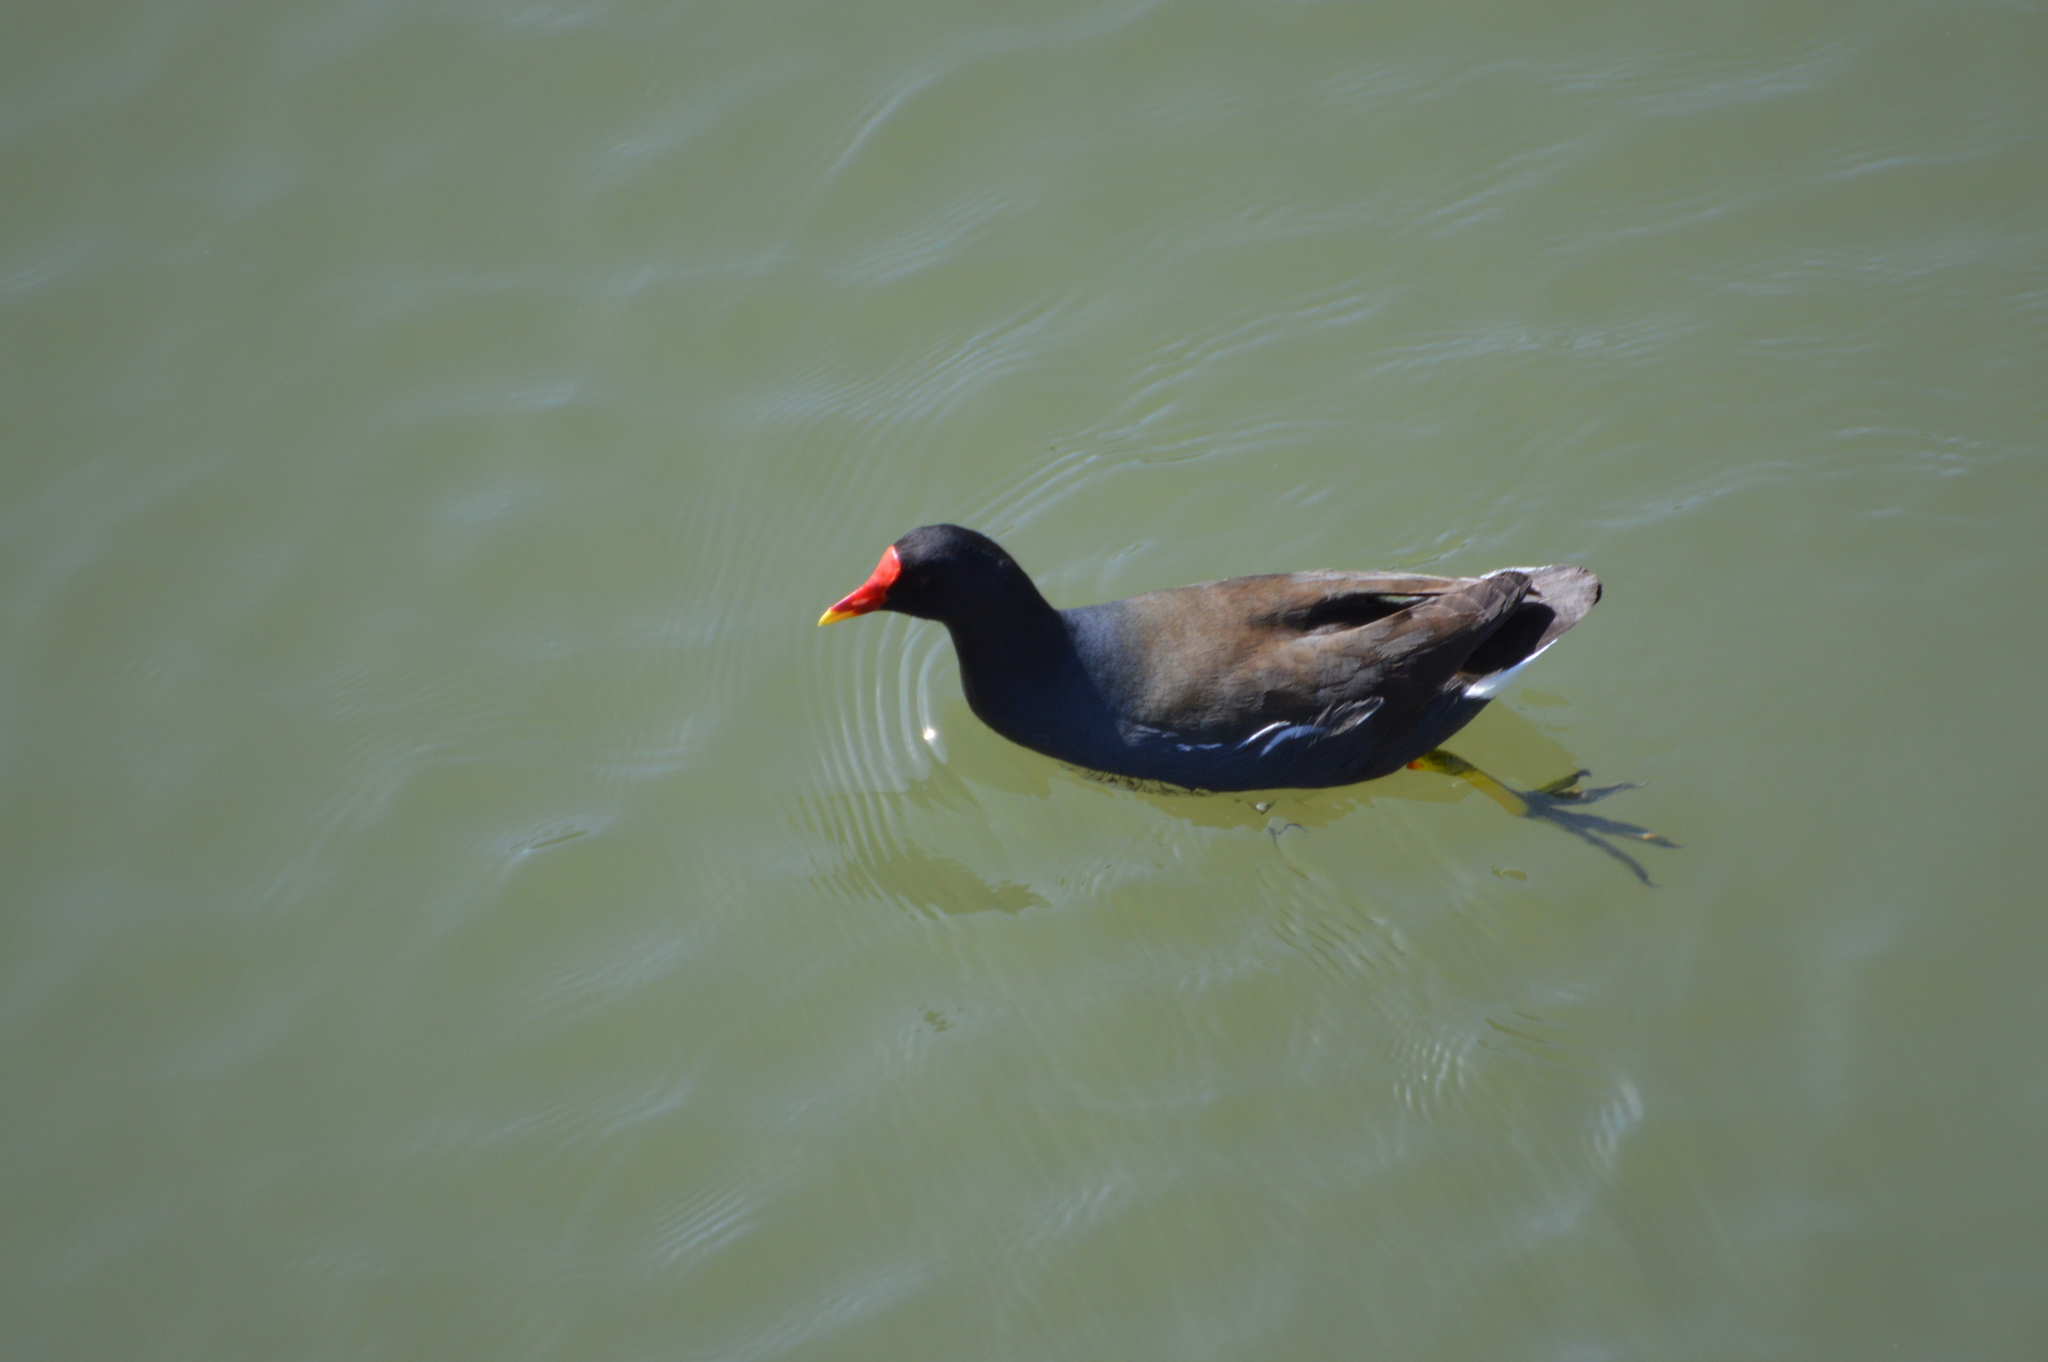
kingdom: Animalia
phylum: Chordata
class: Aves
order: Gruiformes
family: Rallidae
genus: Gallinula
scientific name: Gallinula chloropus
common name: Common moorhen
